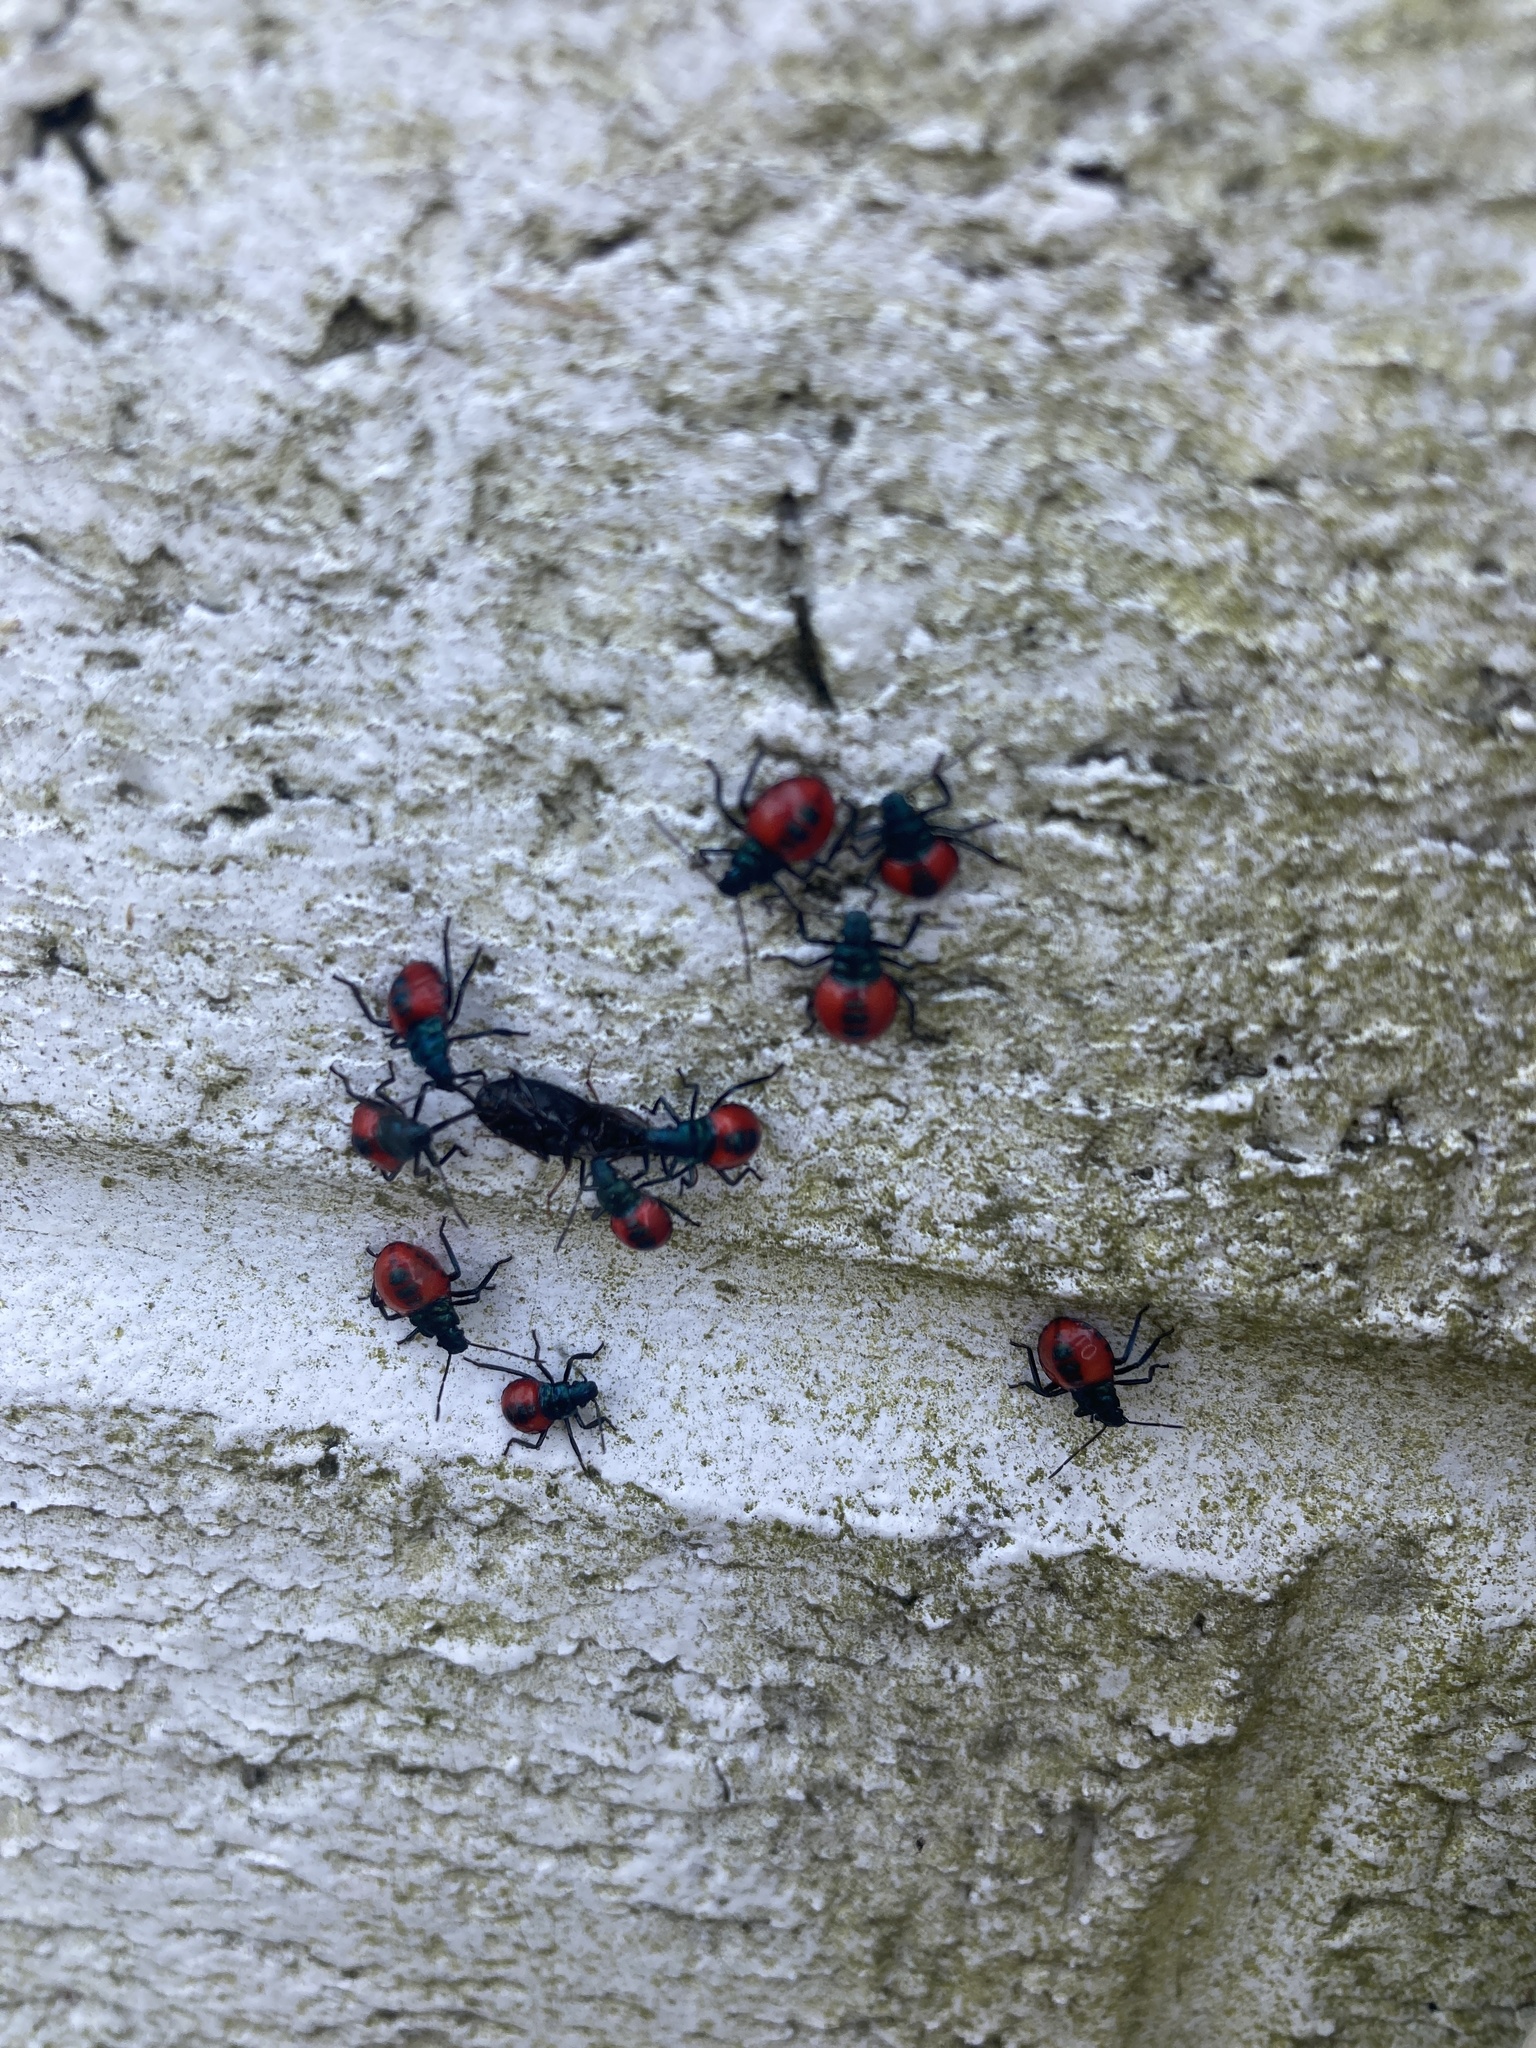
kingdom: Animalia
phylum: Arthropoda
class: Insecta
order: Hemiptera
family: Pentatomidae
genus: Euthyrhynchus
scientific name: Euthyrhynchus floridanus
